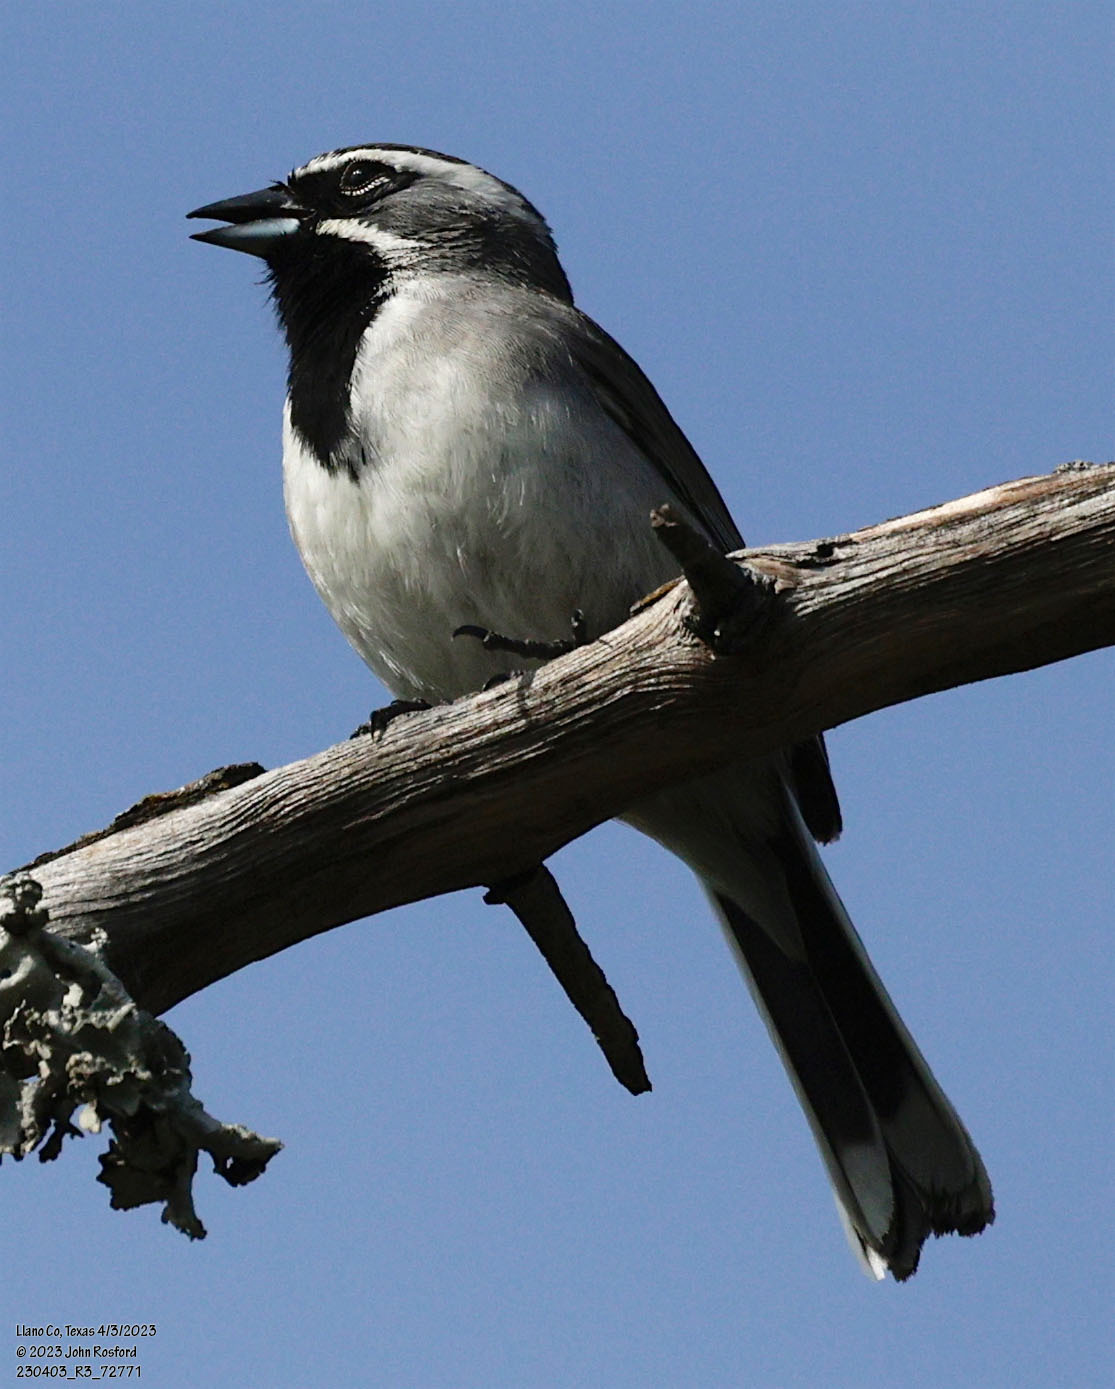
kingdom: Animalia
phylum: Chordata
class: Aves
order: Passeriformes
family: Passerellidae
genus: Amphispiza
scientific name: Amphispiza bilineata
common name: Black-throated sparrow
